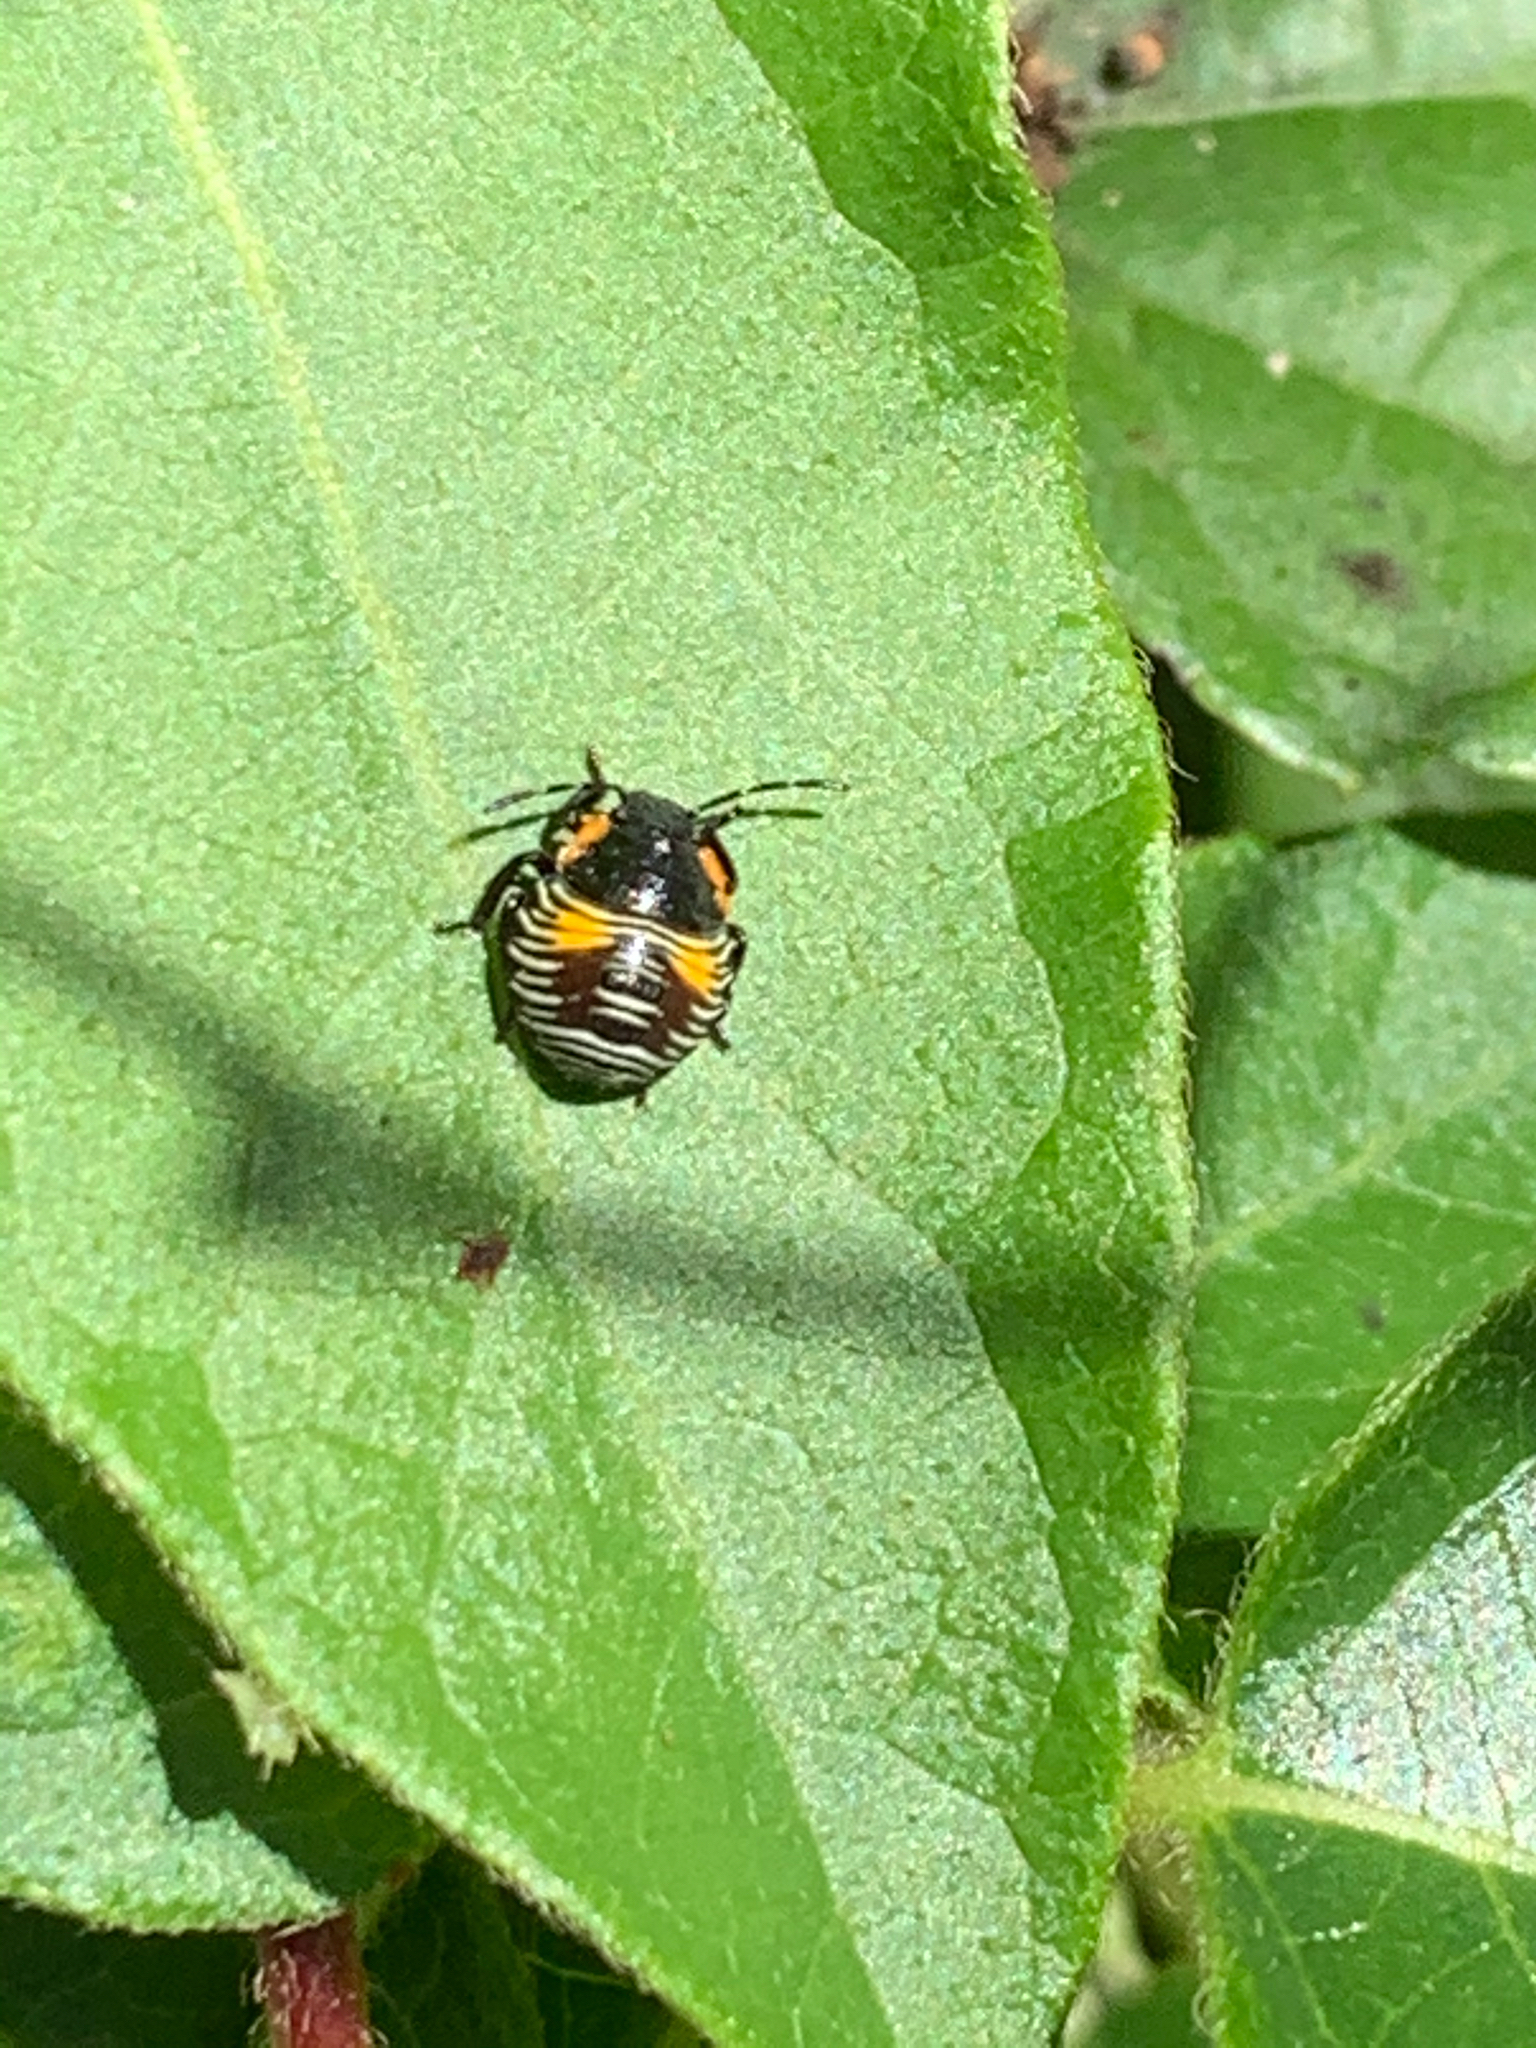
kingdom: Animalia
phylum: Arthropoda
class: Insecta
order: Hemiptera
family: Pentatomidae
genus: Chinavia
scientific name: Chinavia hilaris
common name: Green stink bug
